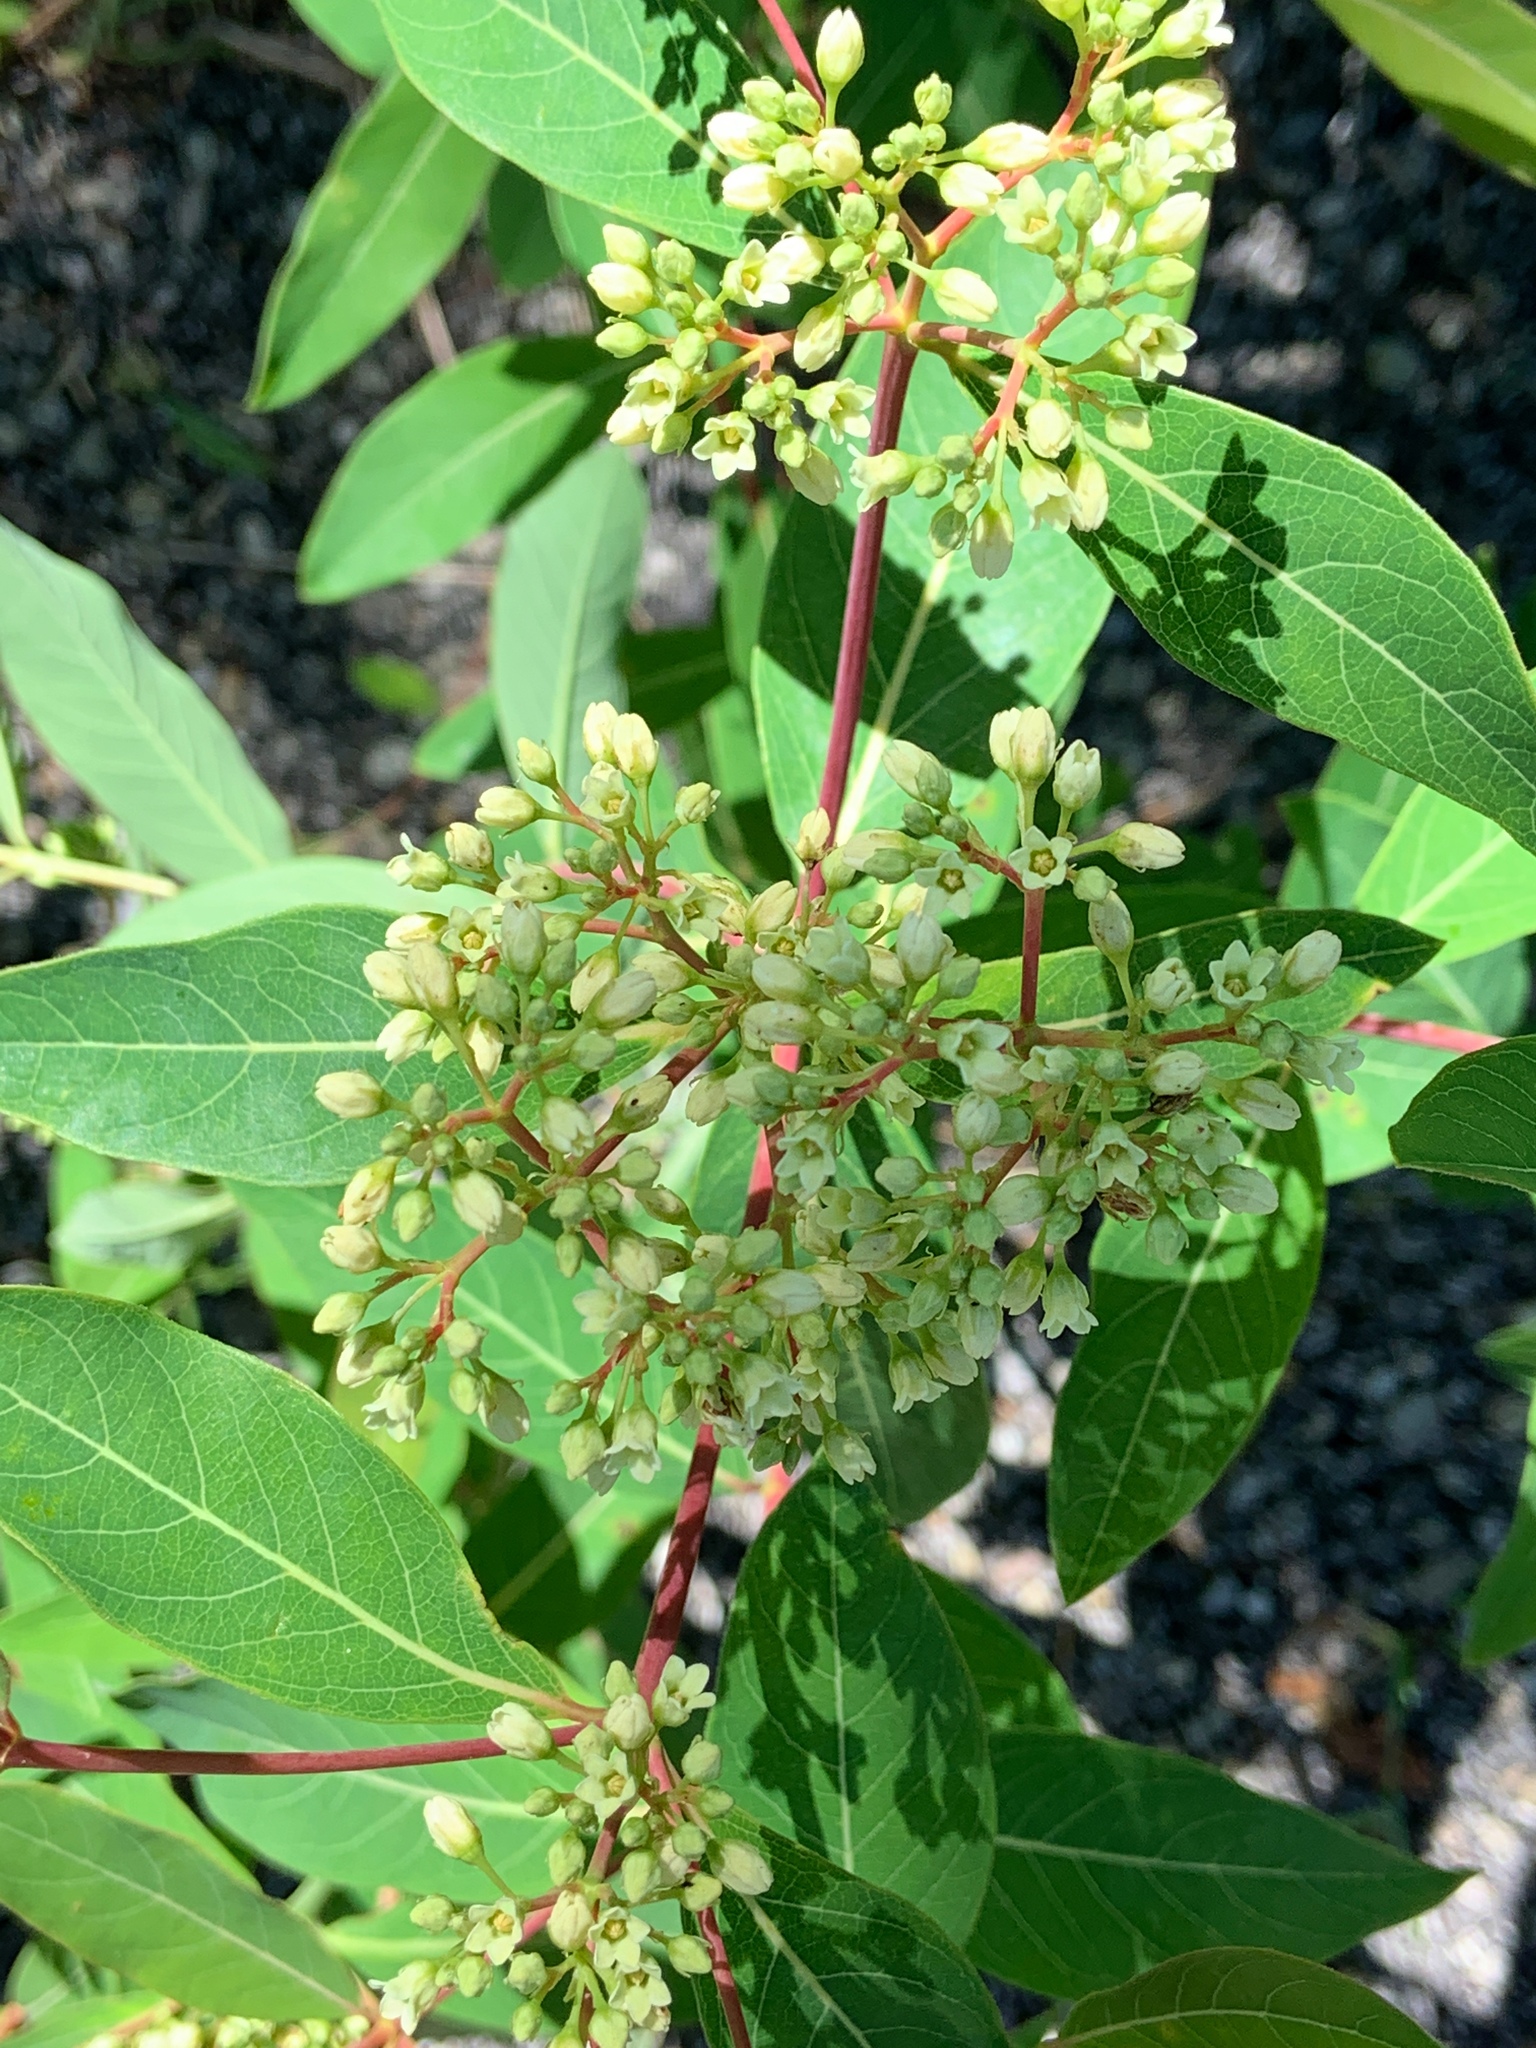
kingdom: Plantae
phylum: Tracheophyta
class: Magnoliopsida
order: Gentianales
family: Apocynaceae
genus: Apocynum
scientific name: Apocynum cannabinum
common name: Hemp dogbane
